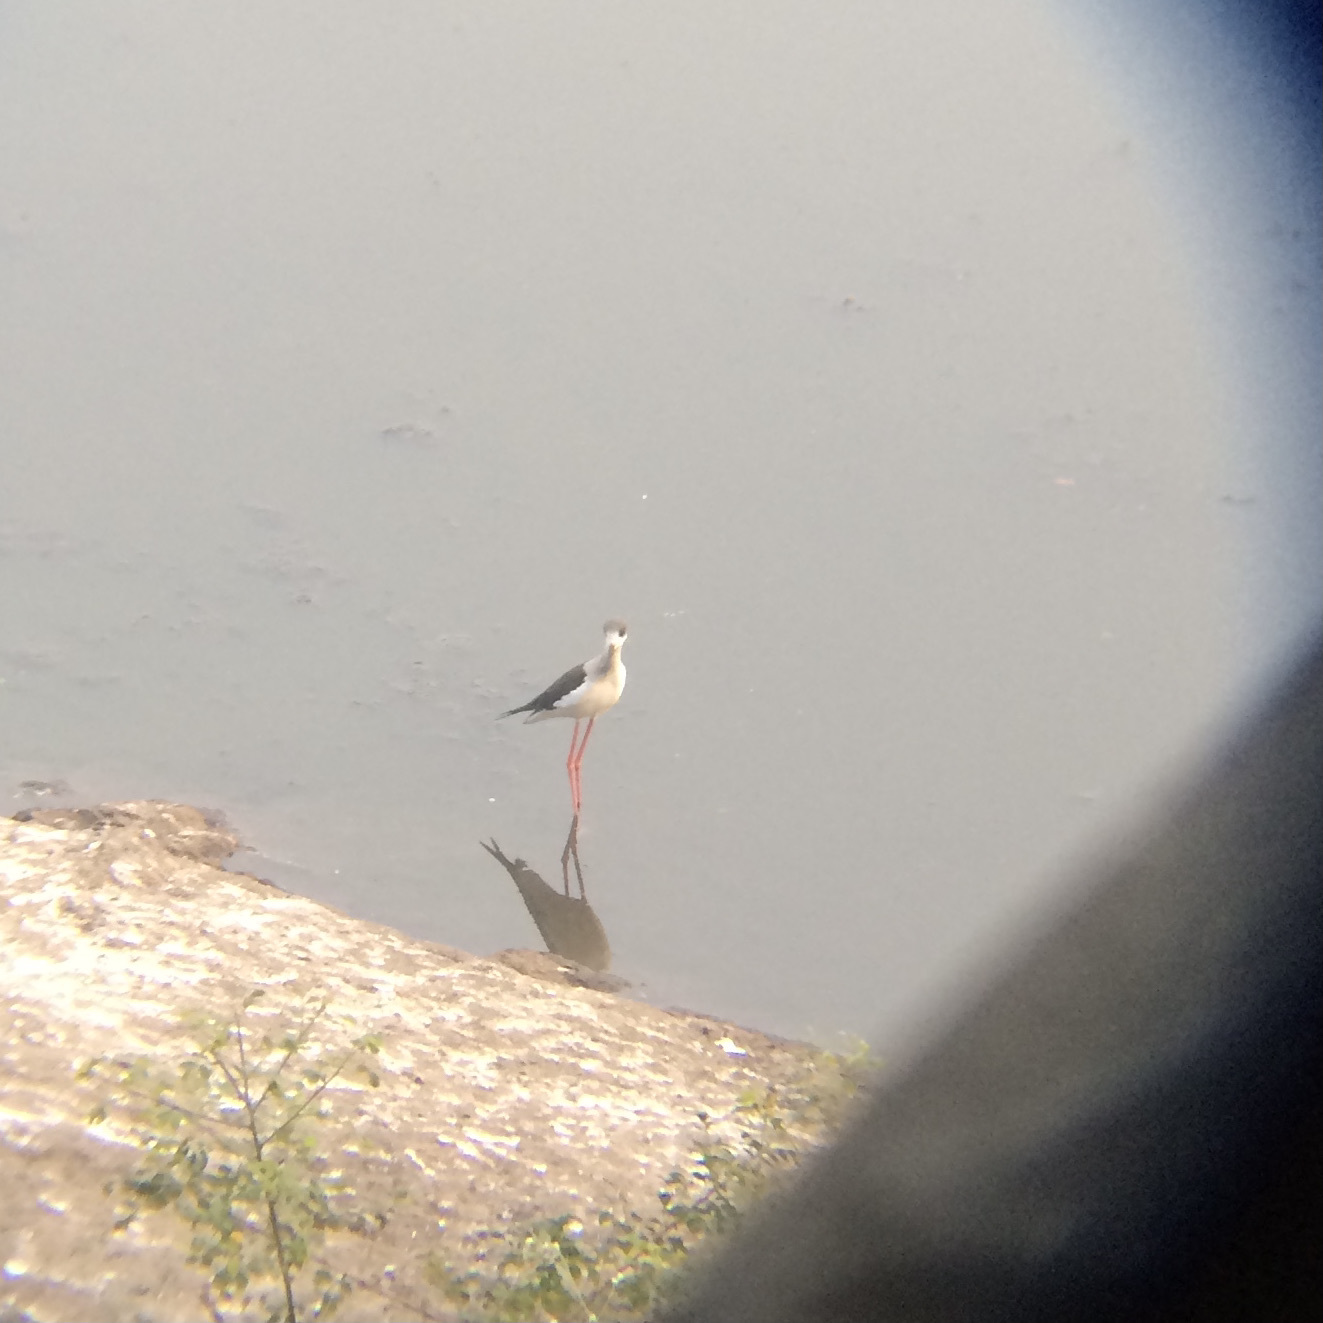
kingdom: Animalia
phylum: Chordata
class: Aves
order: Charadriiformes
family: Recurvirostridae
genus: Himantopus
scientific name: Himantopus himantopus
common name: Black-winged stilt
